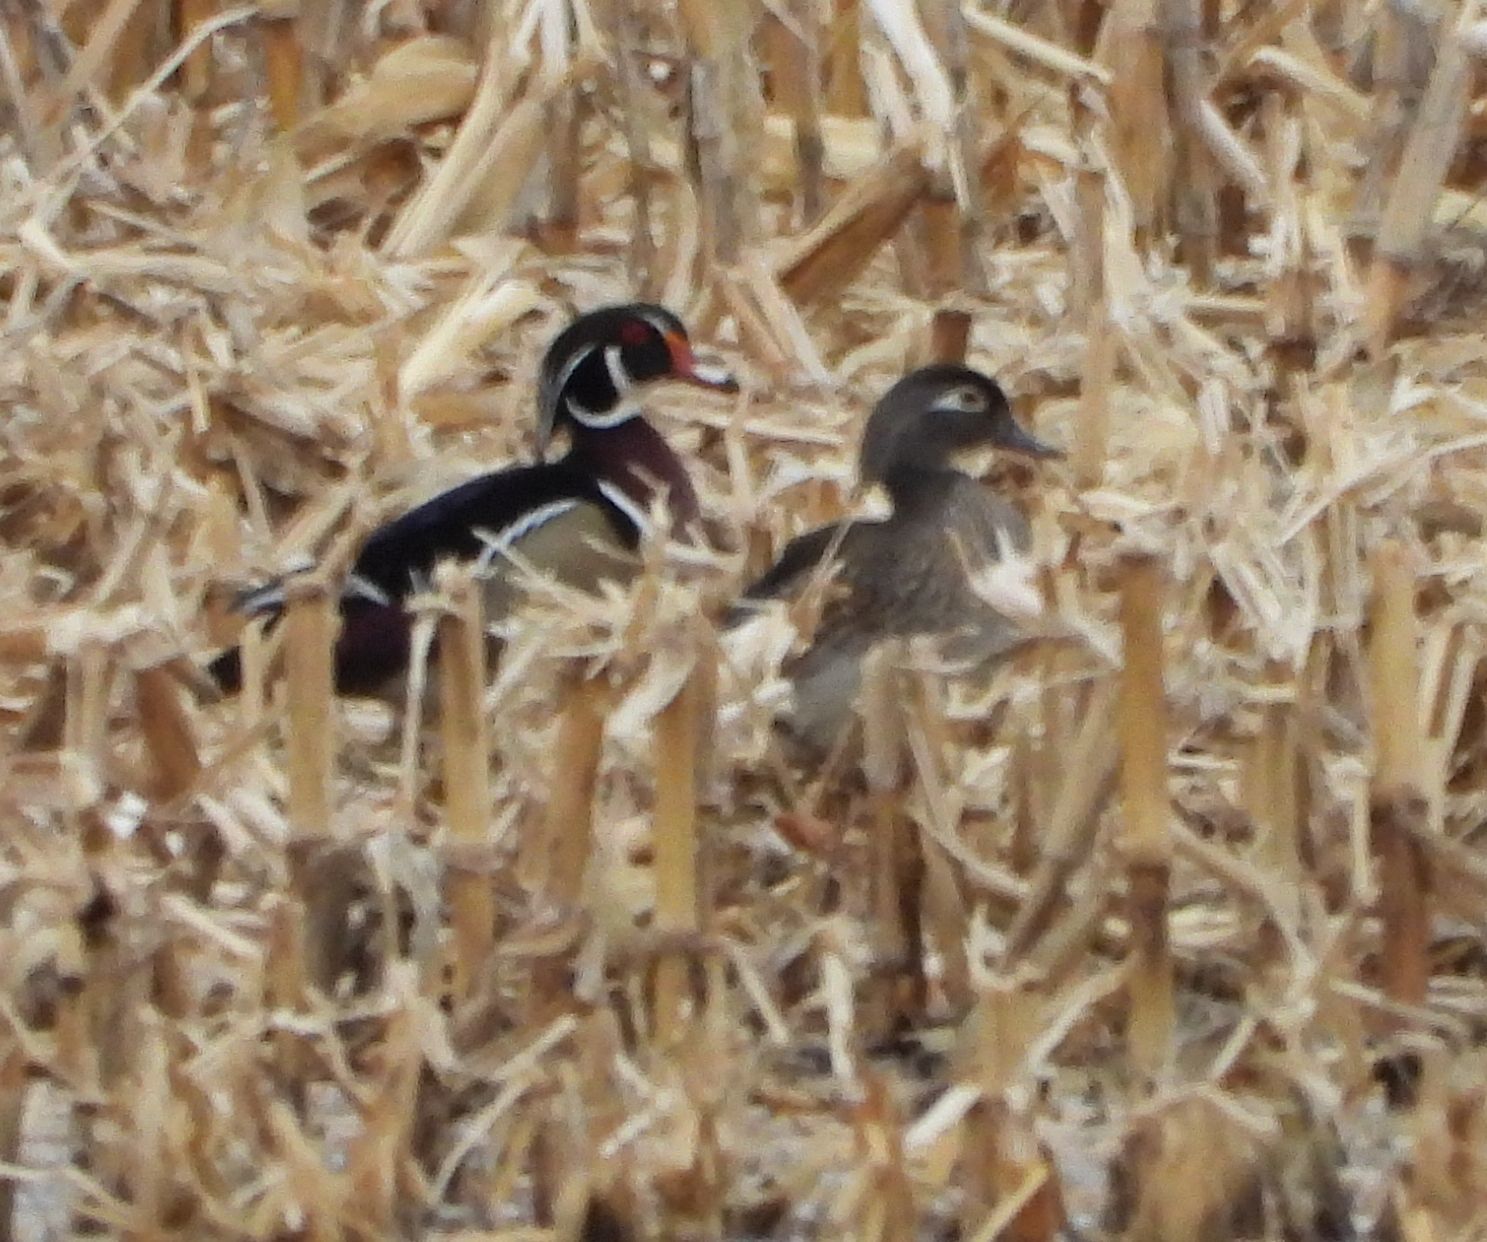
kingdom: Animalia
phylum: Chordata
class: Aves
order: Anseriformes
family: Anatidae
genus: Aix
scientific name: Aix sponsa
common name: Wood duck
